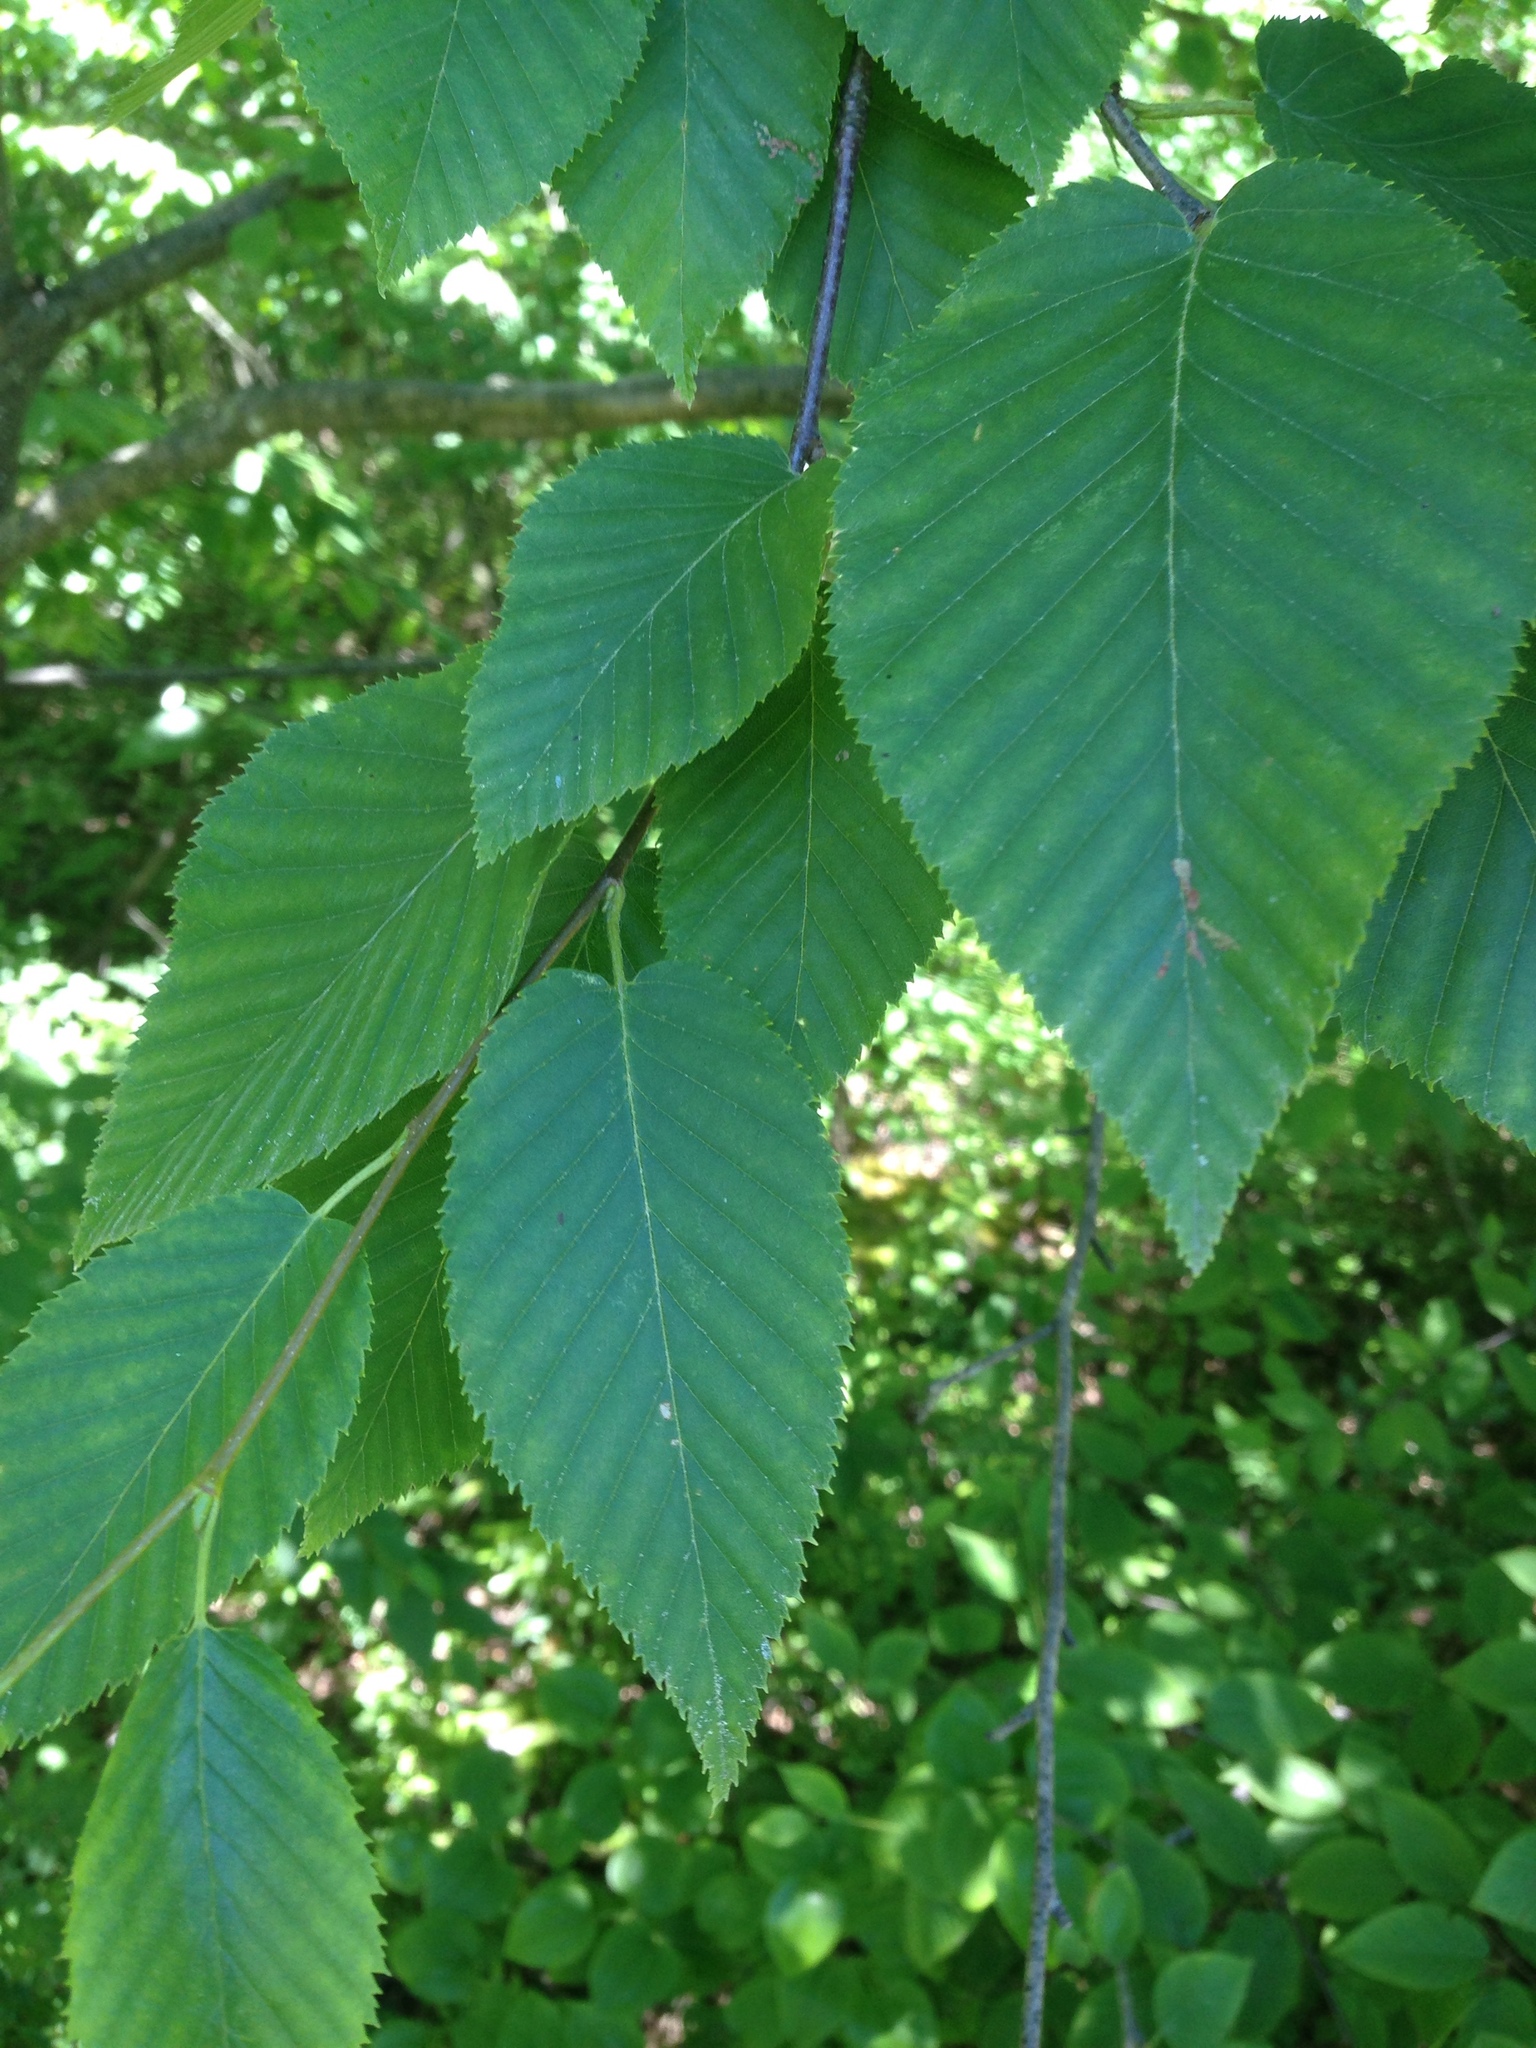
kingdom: Plantae
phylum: Tracheophyta
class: Magnoliopsida
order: Fagales
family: Betulaceae
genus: Betula
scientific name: Betula lenta
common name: Black birch
